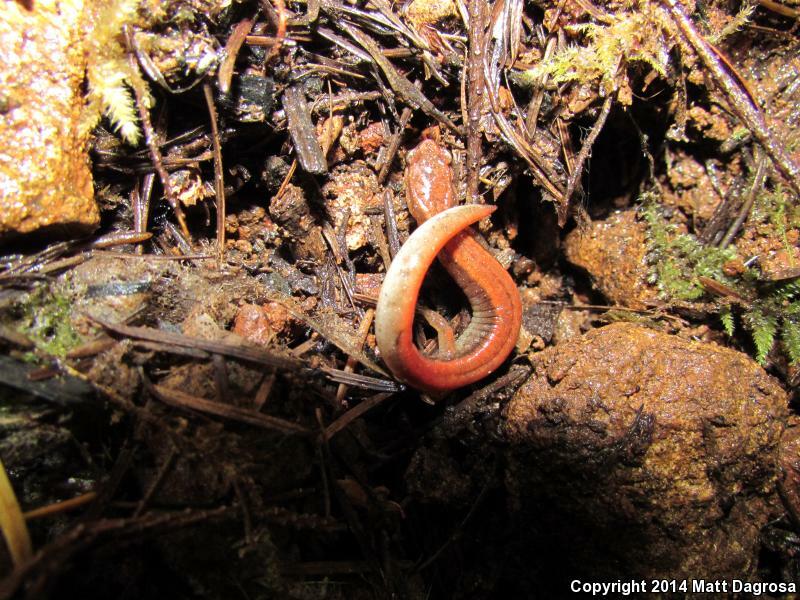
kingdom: Animalia
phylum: Chordata
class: Amphibia
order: Caudata
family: Plethodontidae
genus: Plethodon
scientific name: Plethodon vehiculum
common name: Western red-backed salamander
